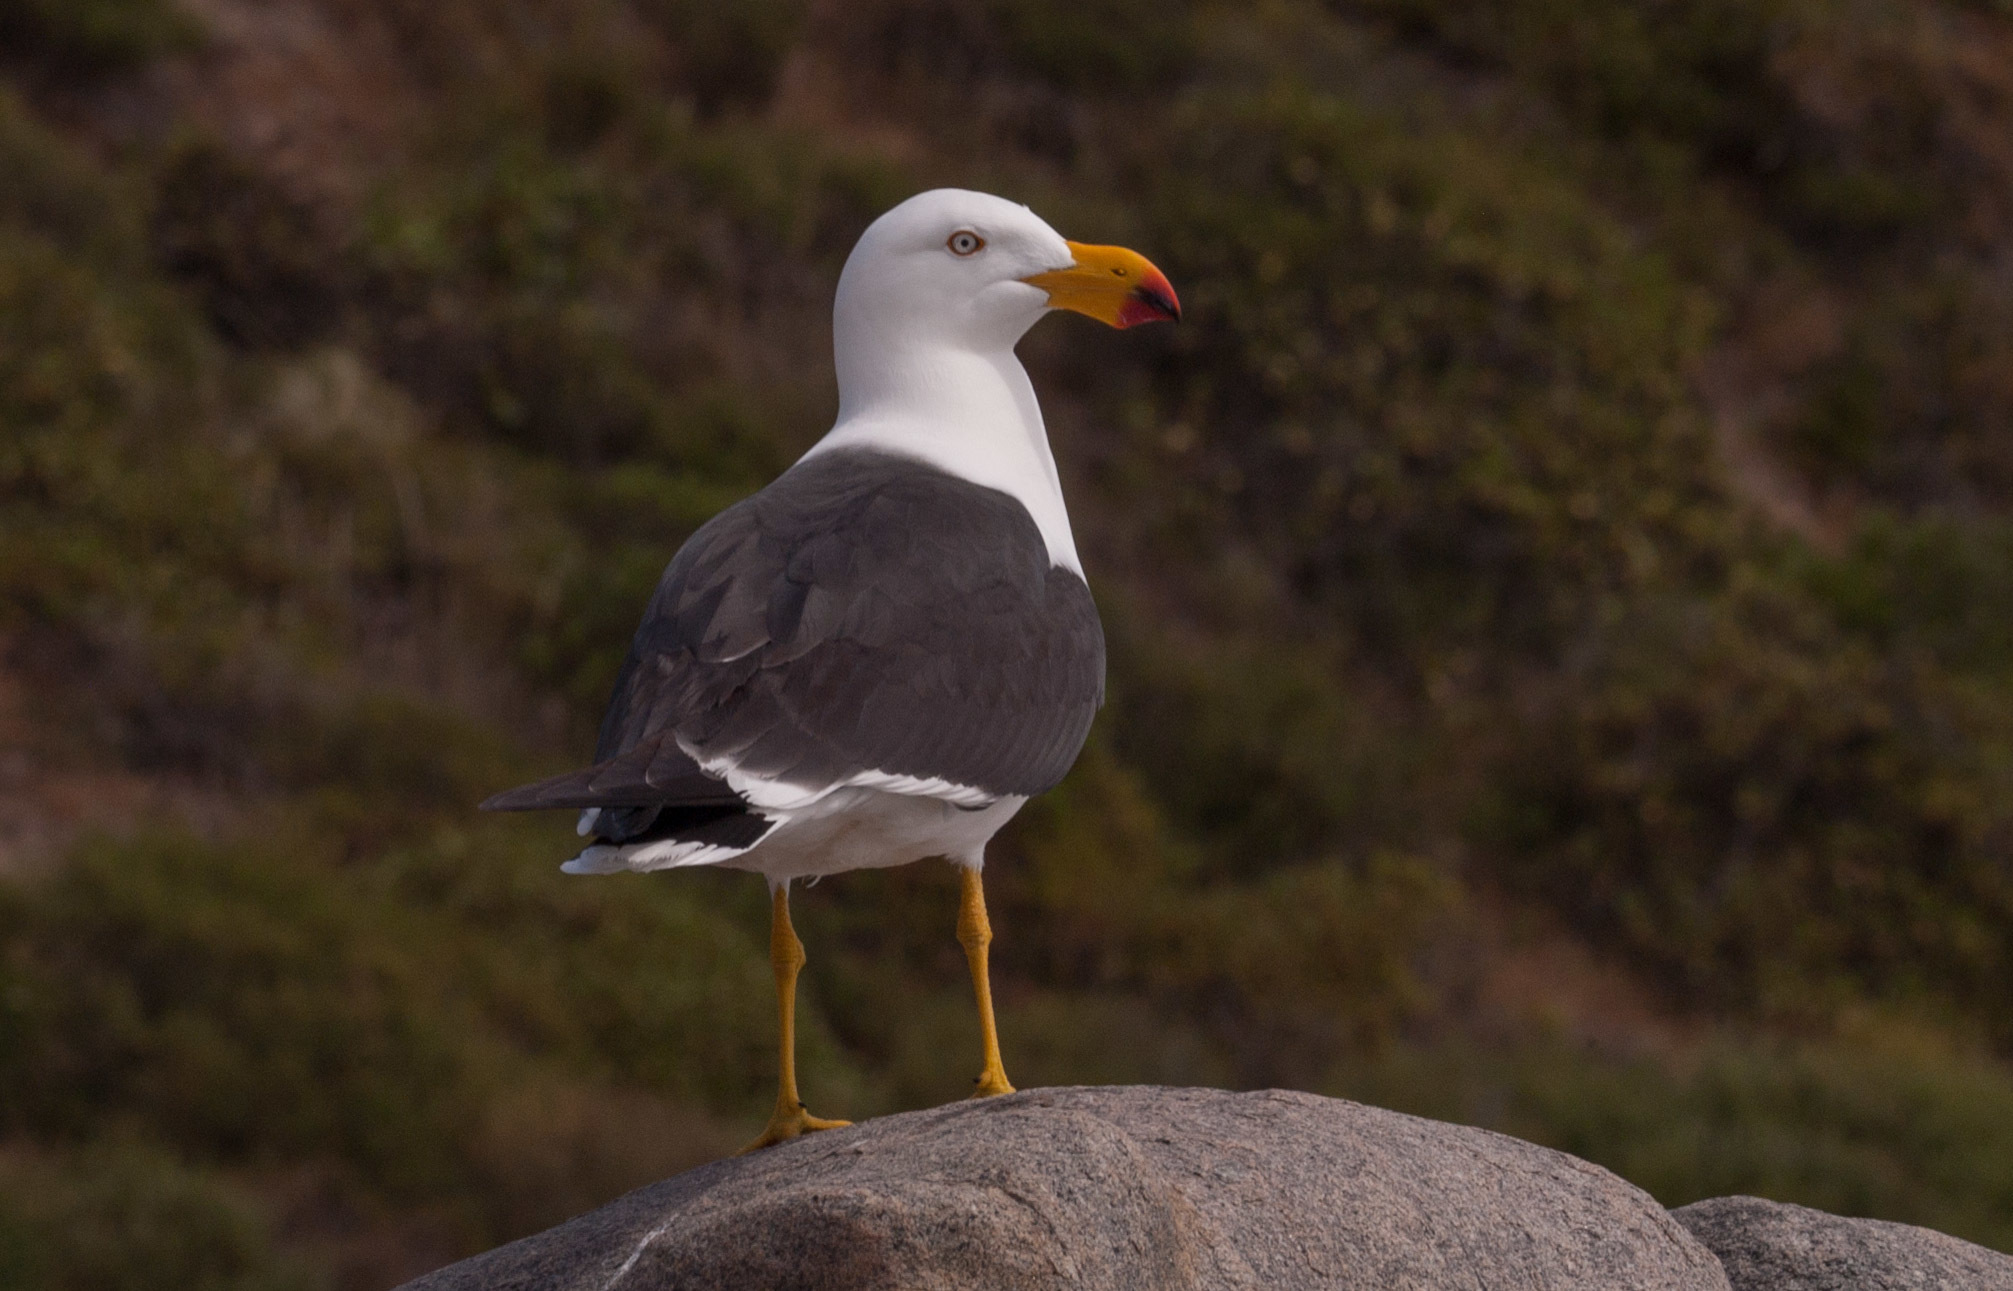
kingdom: Animalia
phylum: Chordata
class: Aves
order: Charadriiformes
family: Laridae
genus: Larus
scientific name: Larus pacificus
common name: Pacific gull
